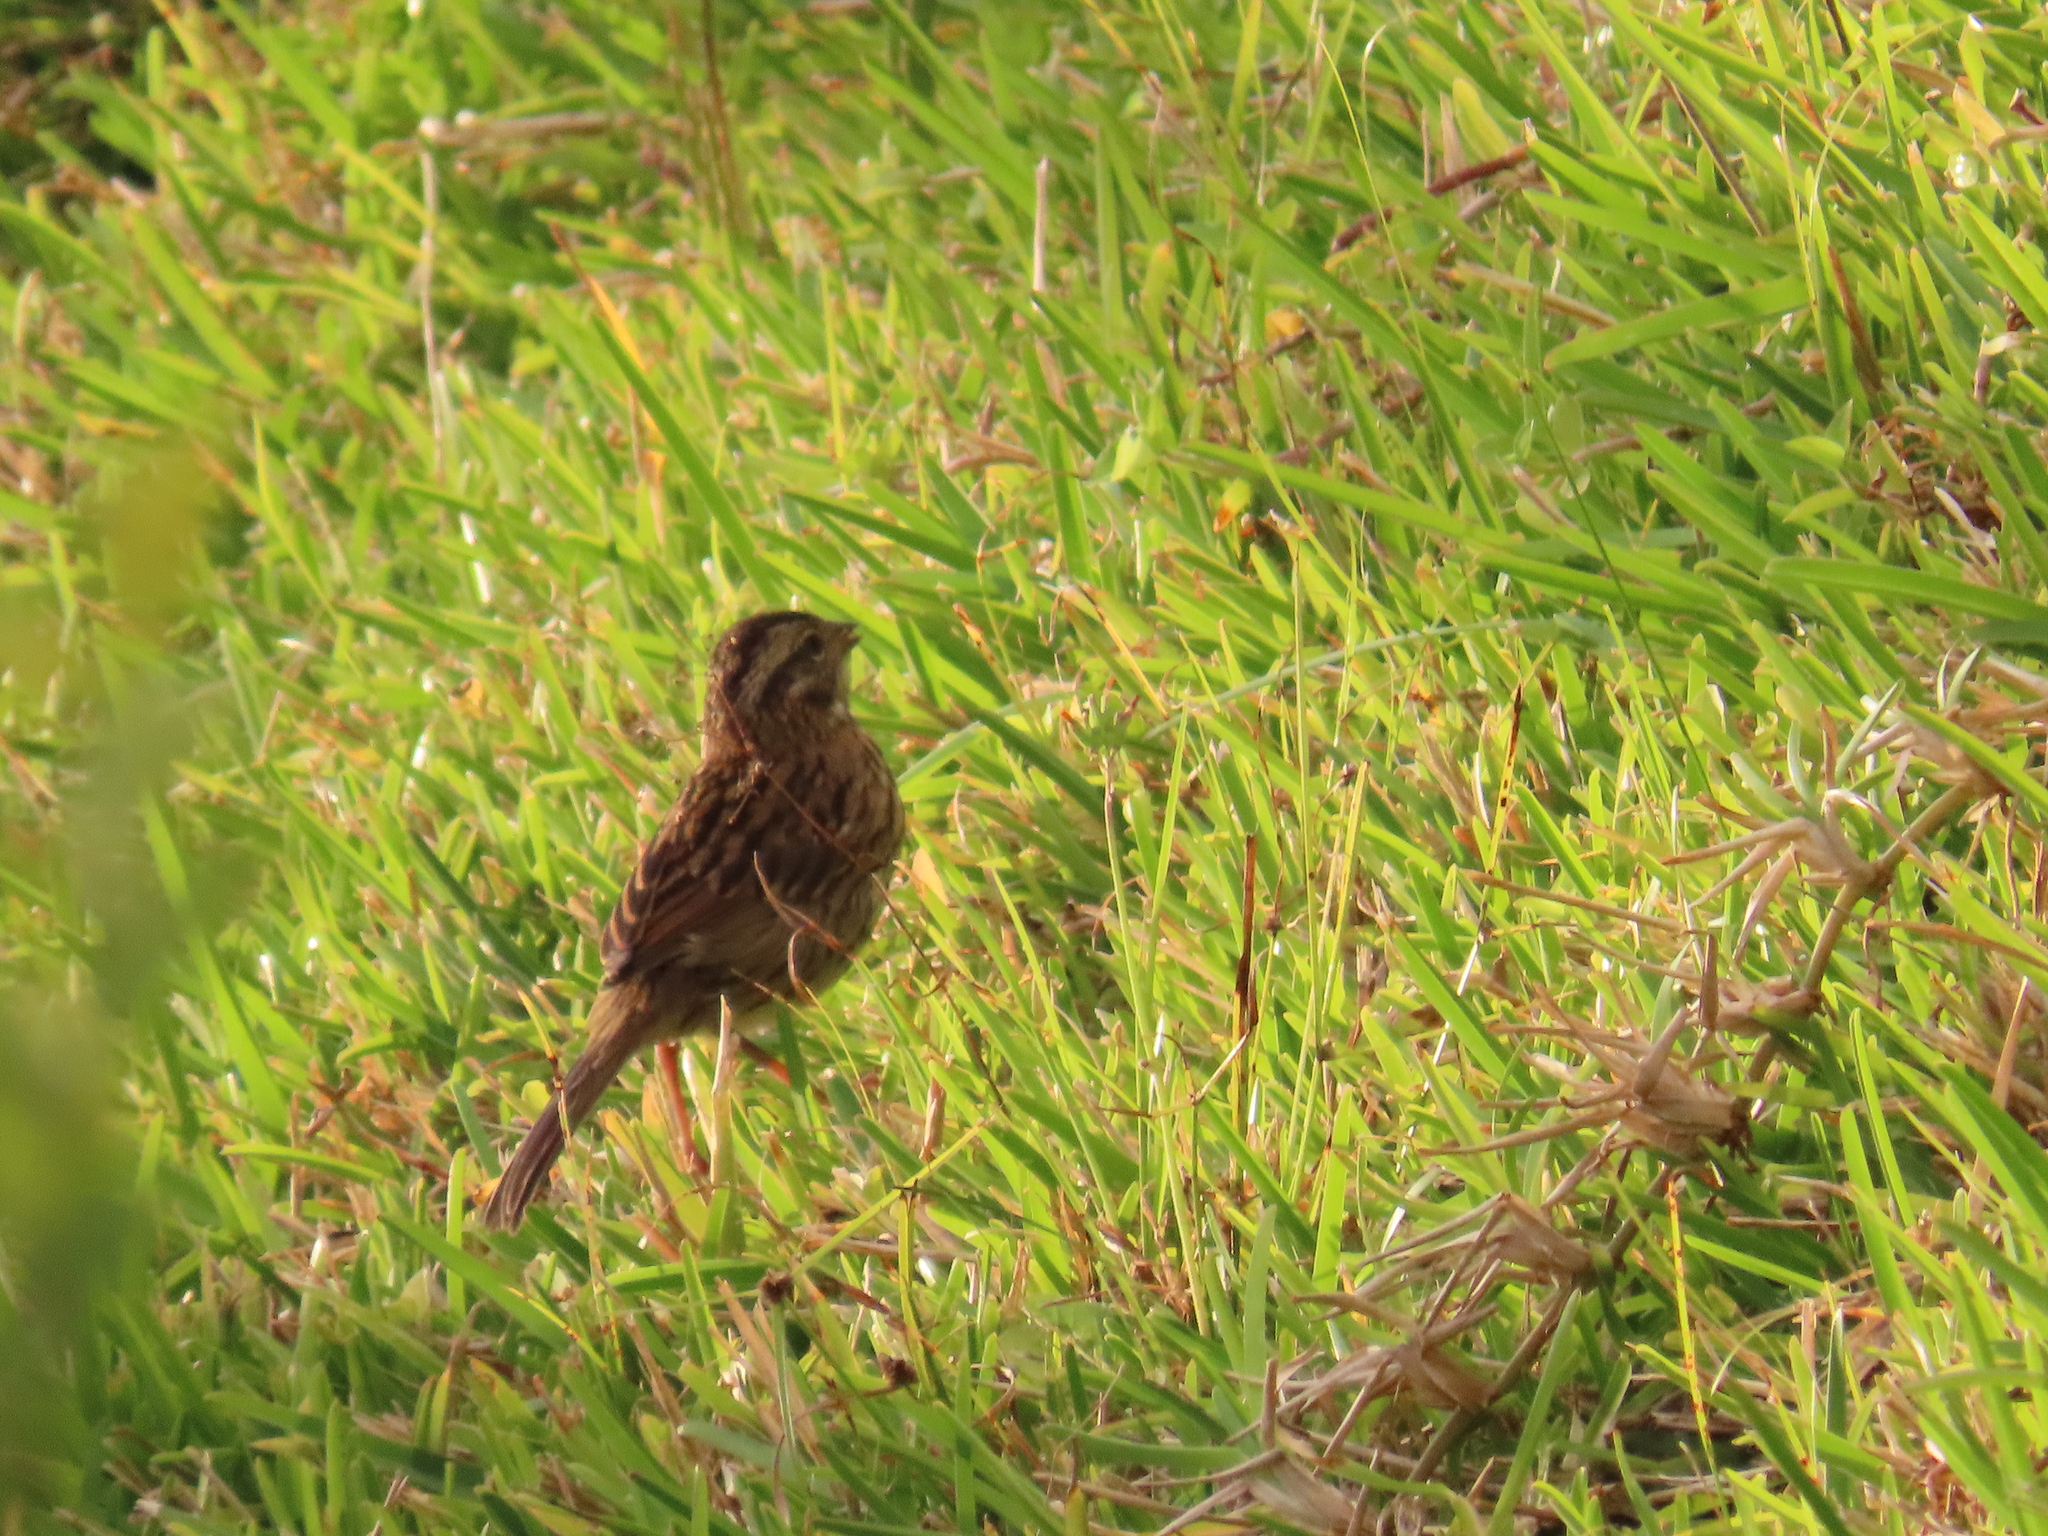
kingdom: Animalia
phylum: Chordata
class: Aves
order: Passeriformes
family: Passerellidae
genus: Zonotrichia
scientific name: Zonotrichia capensis
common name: Rufous-collared sparrow
